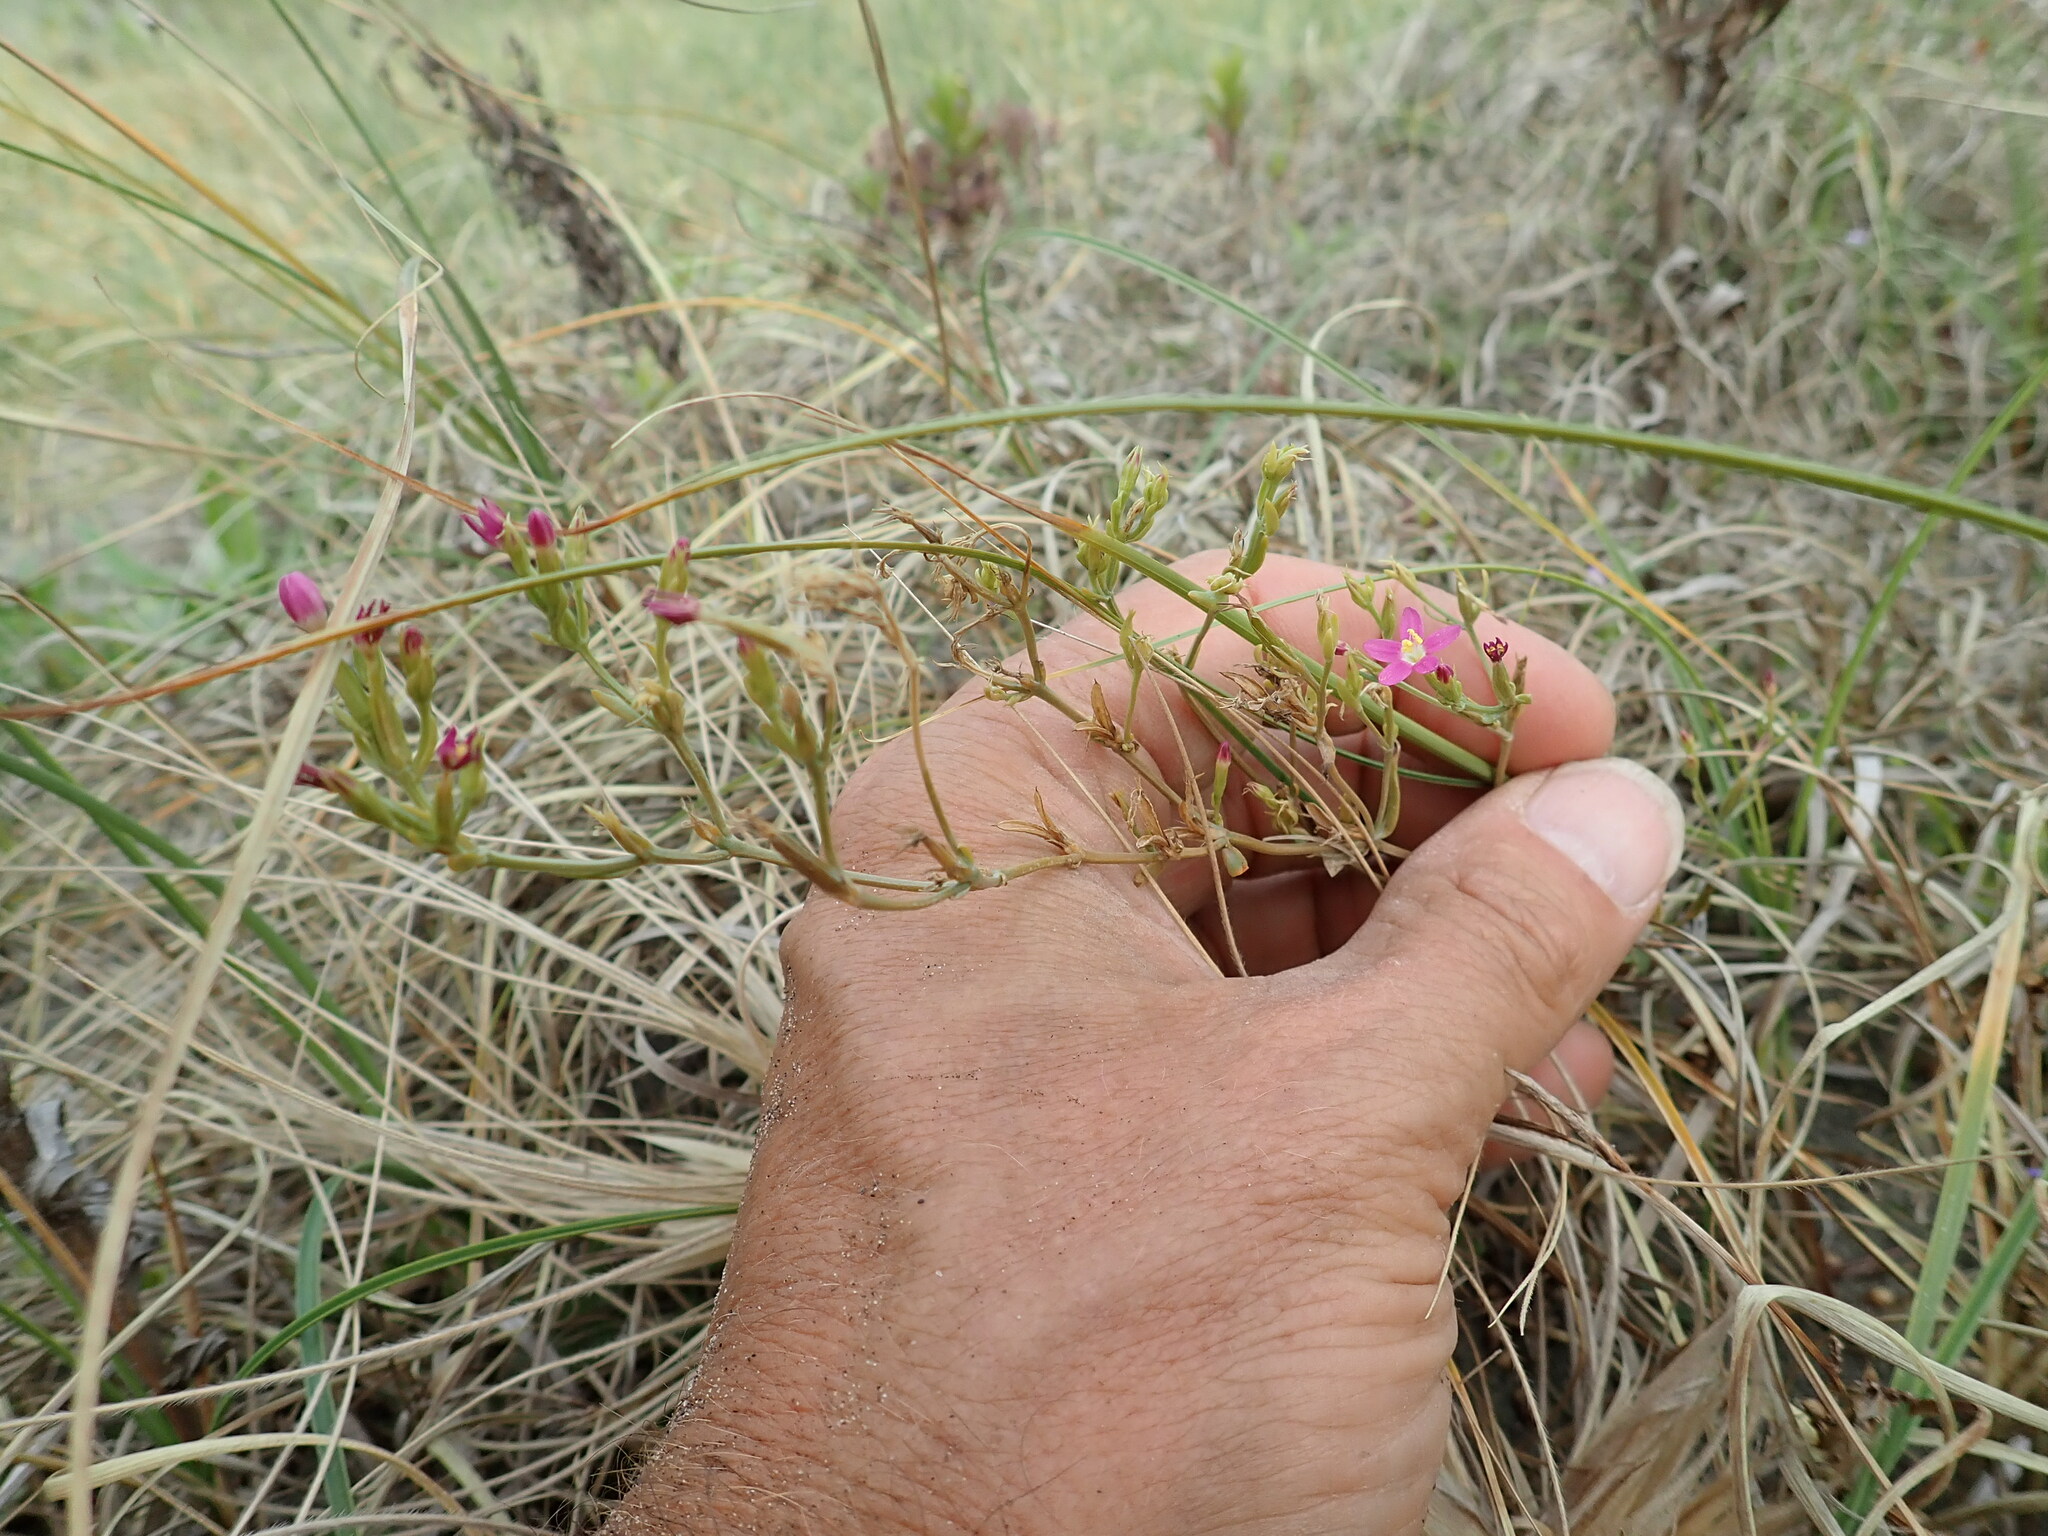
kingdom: Plantae
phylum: Tracheophyta
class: Magnoliopsida
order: Gentianales
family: Gentianaceae
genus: Centaurium
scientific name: Centaurium erythraea
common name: Common centaury
